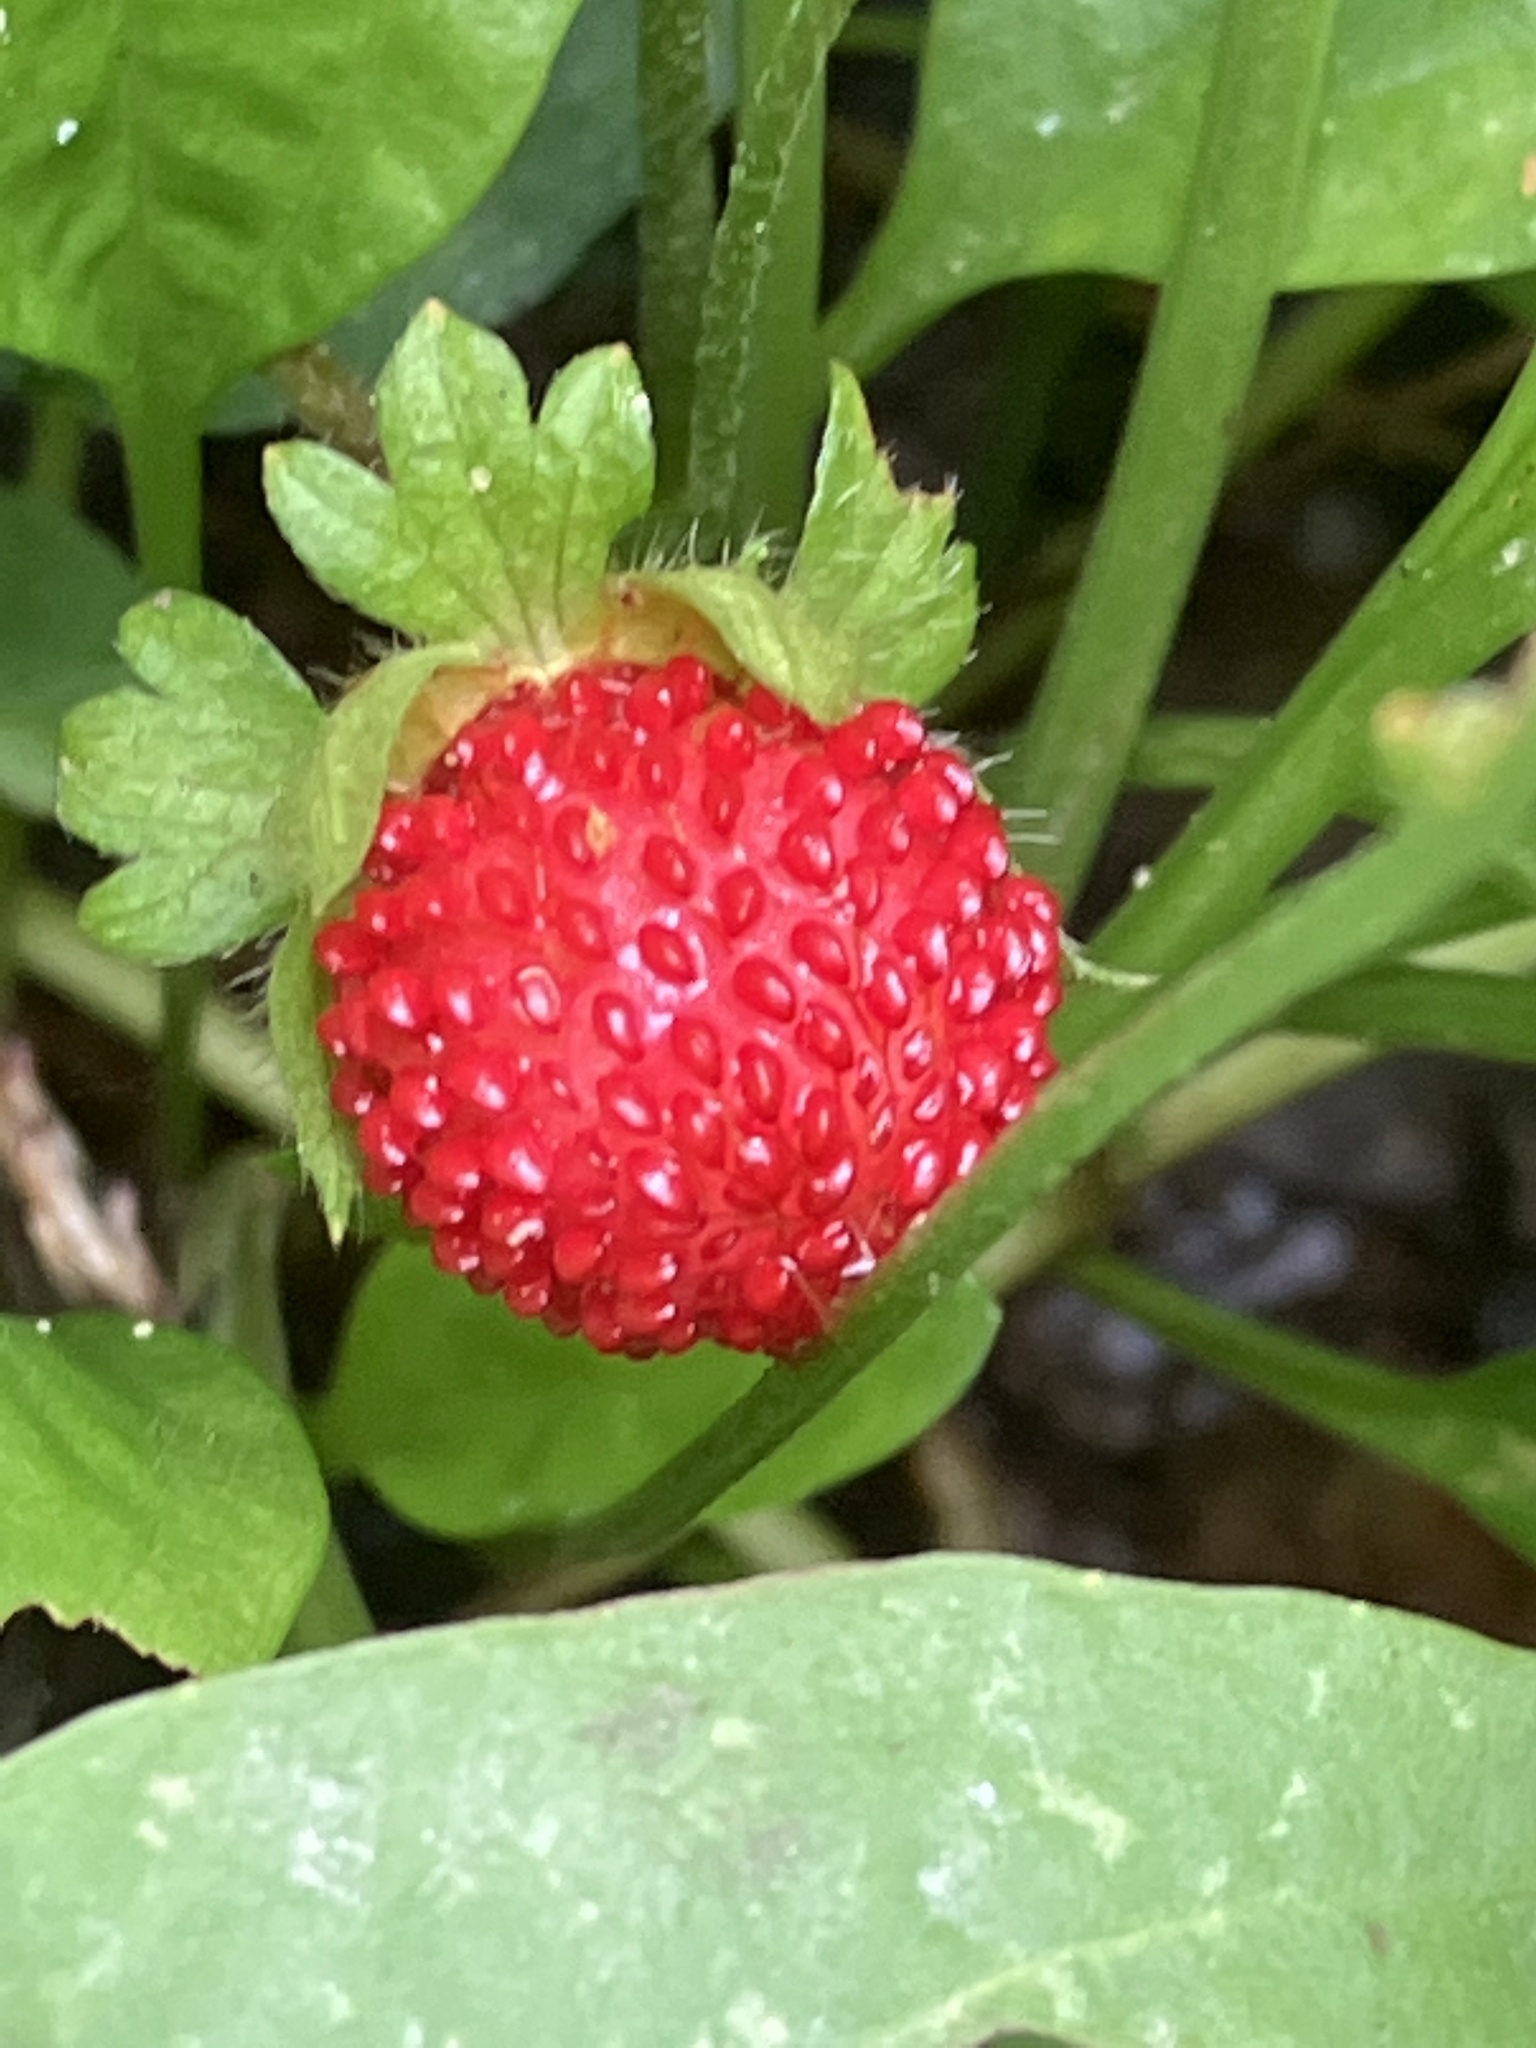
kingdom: Plantae
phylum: Tracheophyta
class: Magnoliopsida
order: Rosales
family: Rosaceae
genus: Potentilla
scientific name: Potentilla indica
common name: Yellow-flowered strawberry
